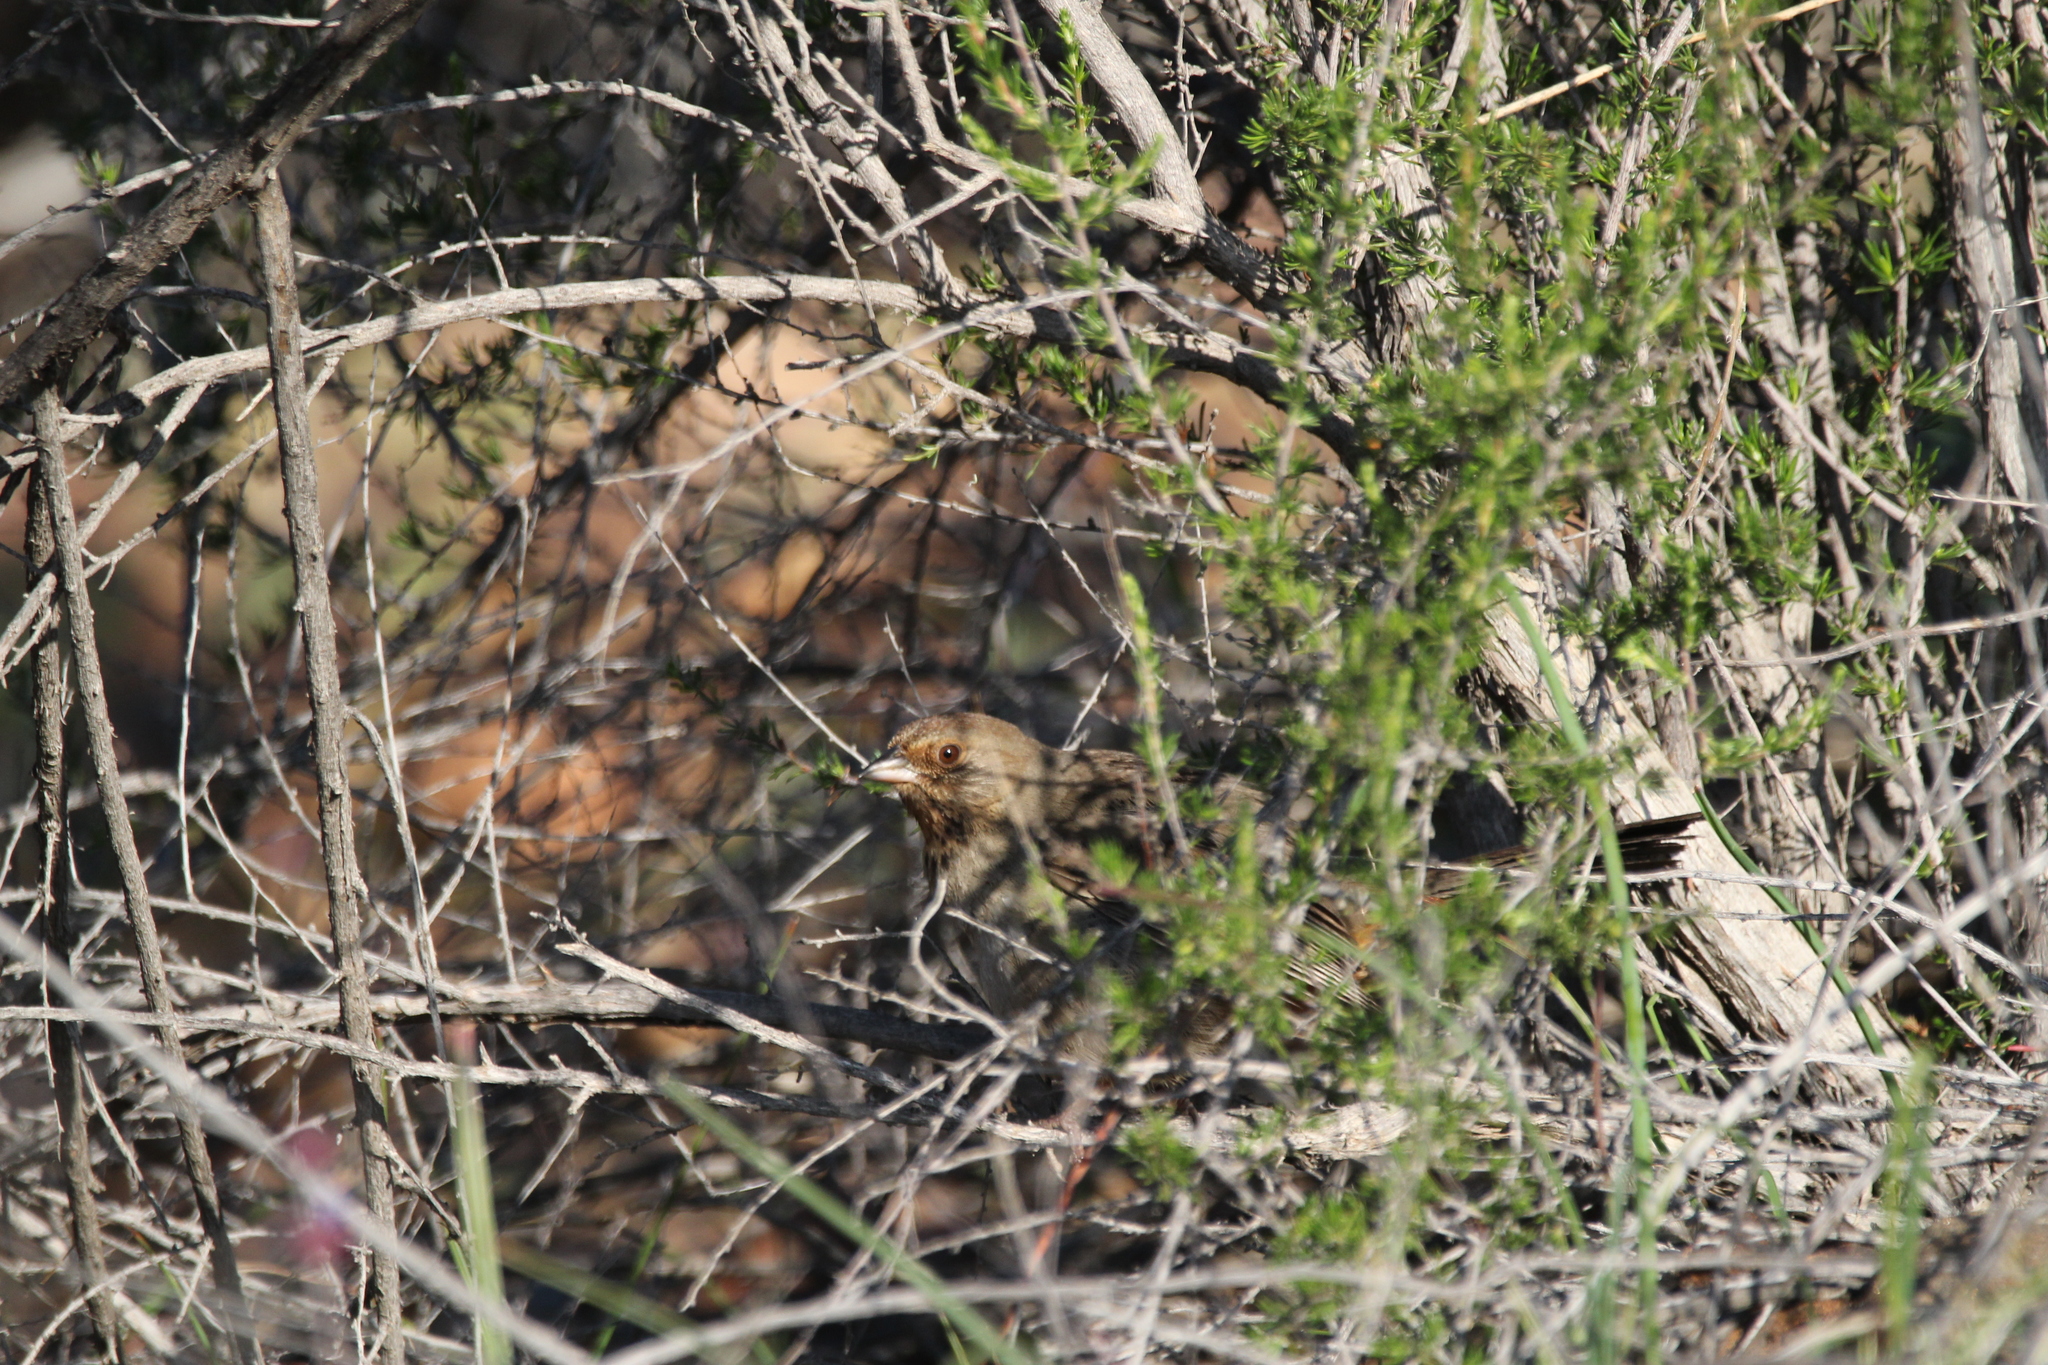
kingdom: Animalia
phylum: Chordata
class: Aves
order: Passeriformes
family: Passerellidae
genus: Melozone
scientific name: Melozone crissalis
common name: California towhee
